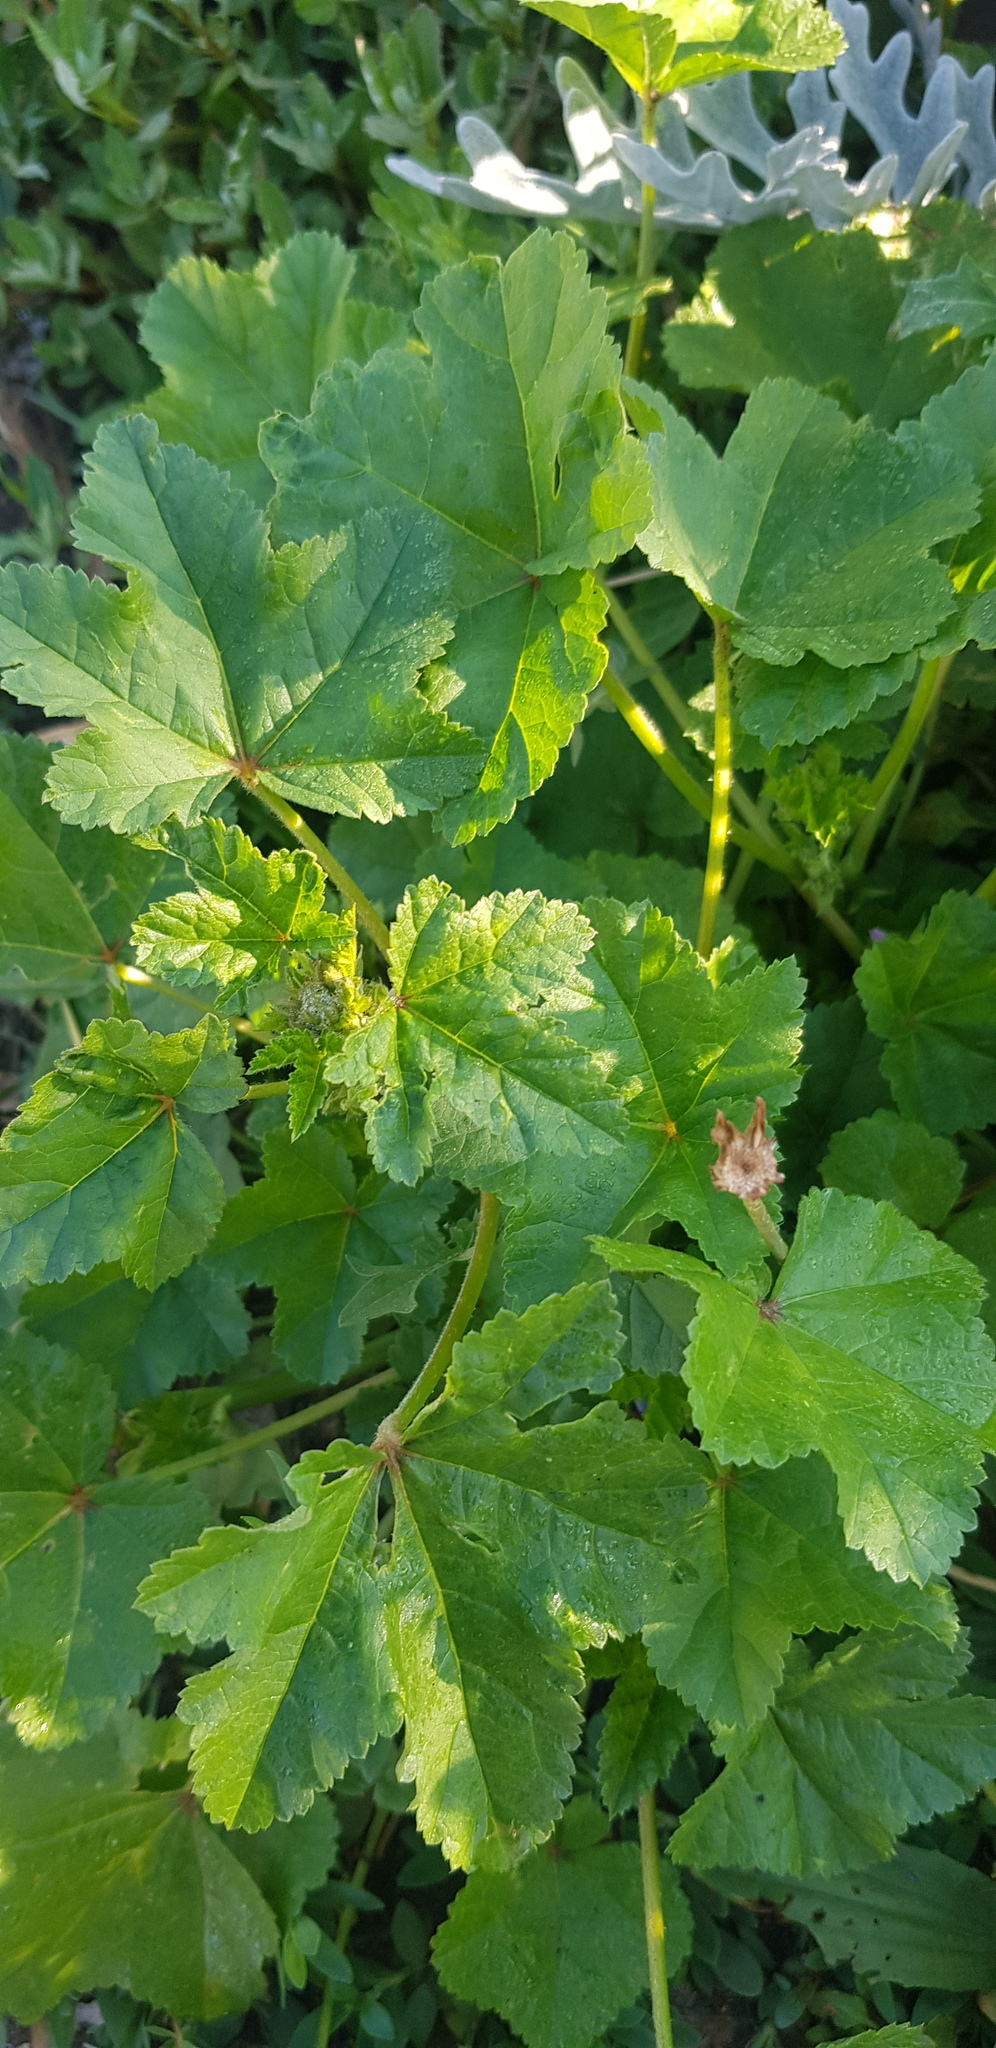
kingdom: Plantae
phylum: Tracheophyta
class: Magnoliopsida
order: Malvales
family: Malvaceae
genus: Malva
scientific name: Malva verticillata
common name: Chinese mallow
